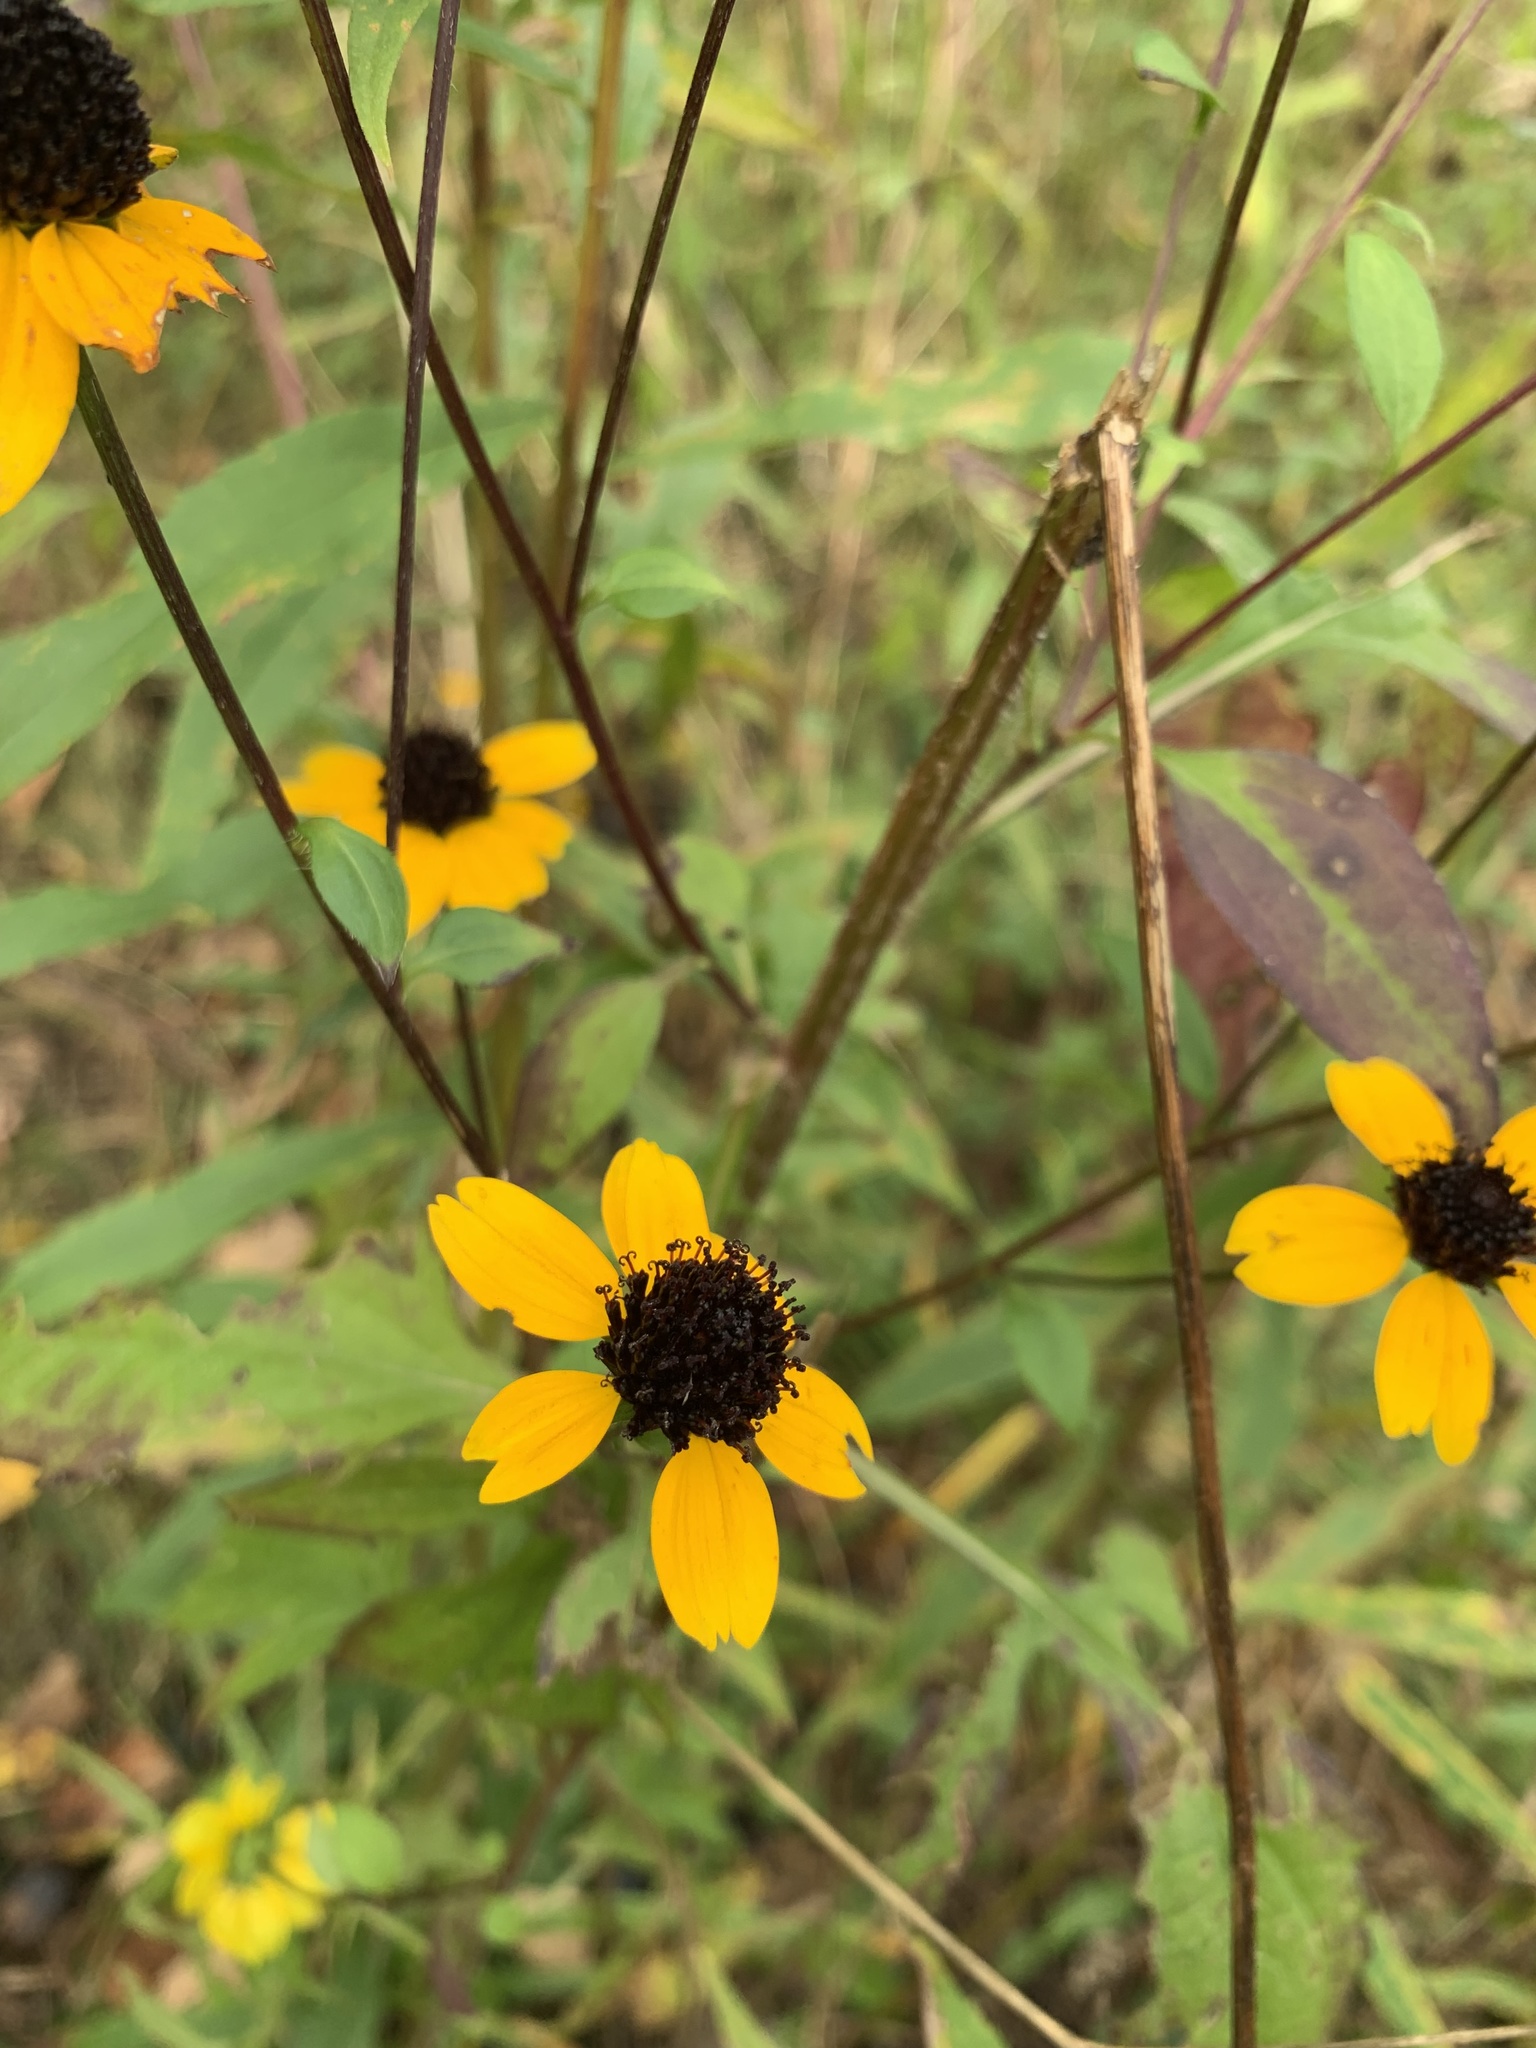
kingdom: Plantae
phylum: Tracheophyta
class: Magnoliopsida
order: Asterales
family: Asteraceae
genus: Rudbeckia
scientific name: Rudbeckia triloba
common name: Thin-leaved coneflower
